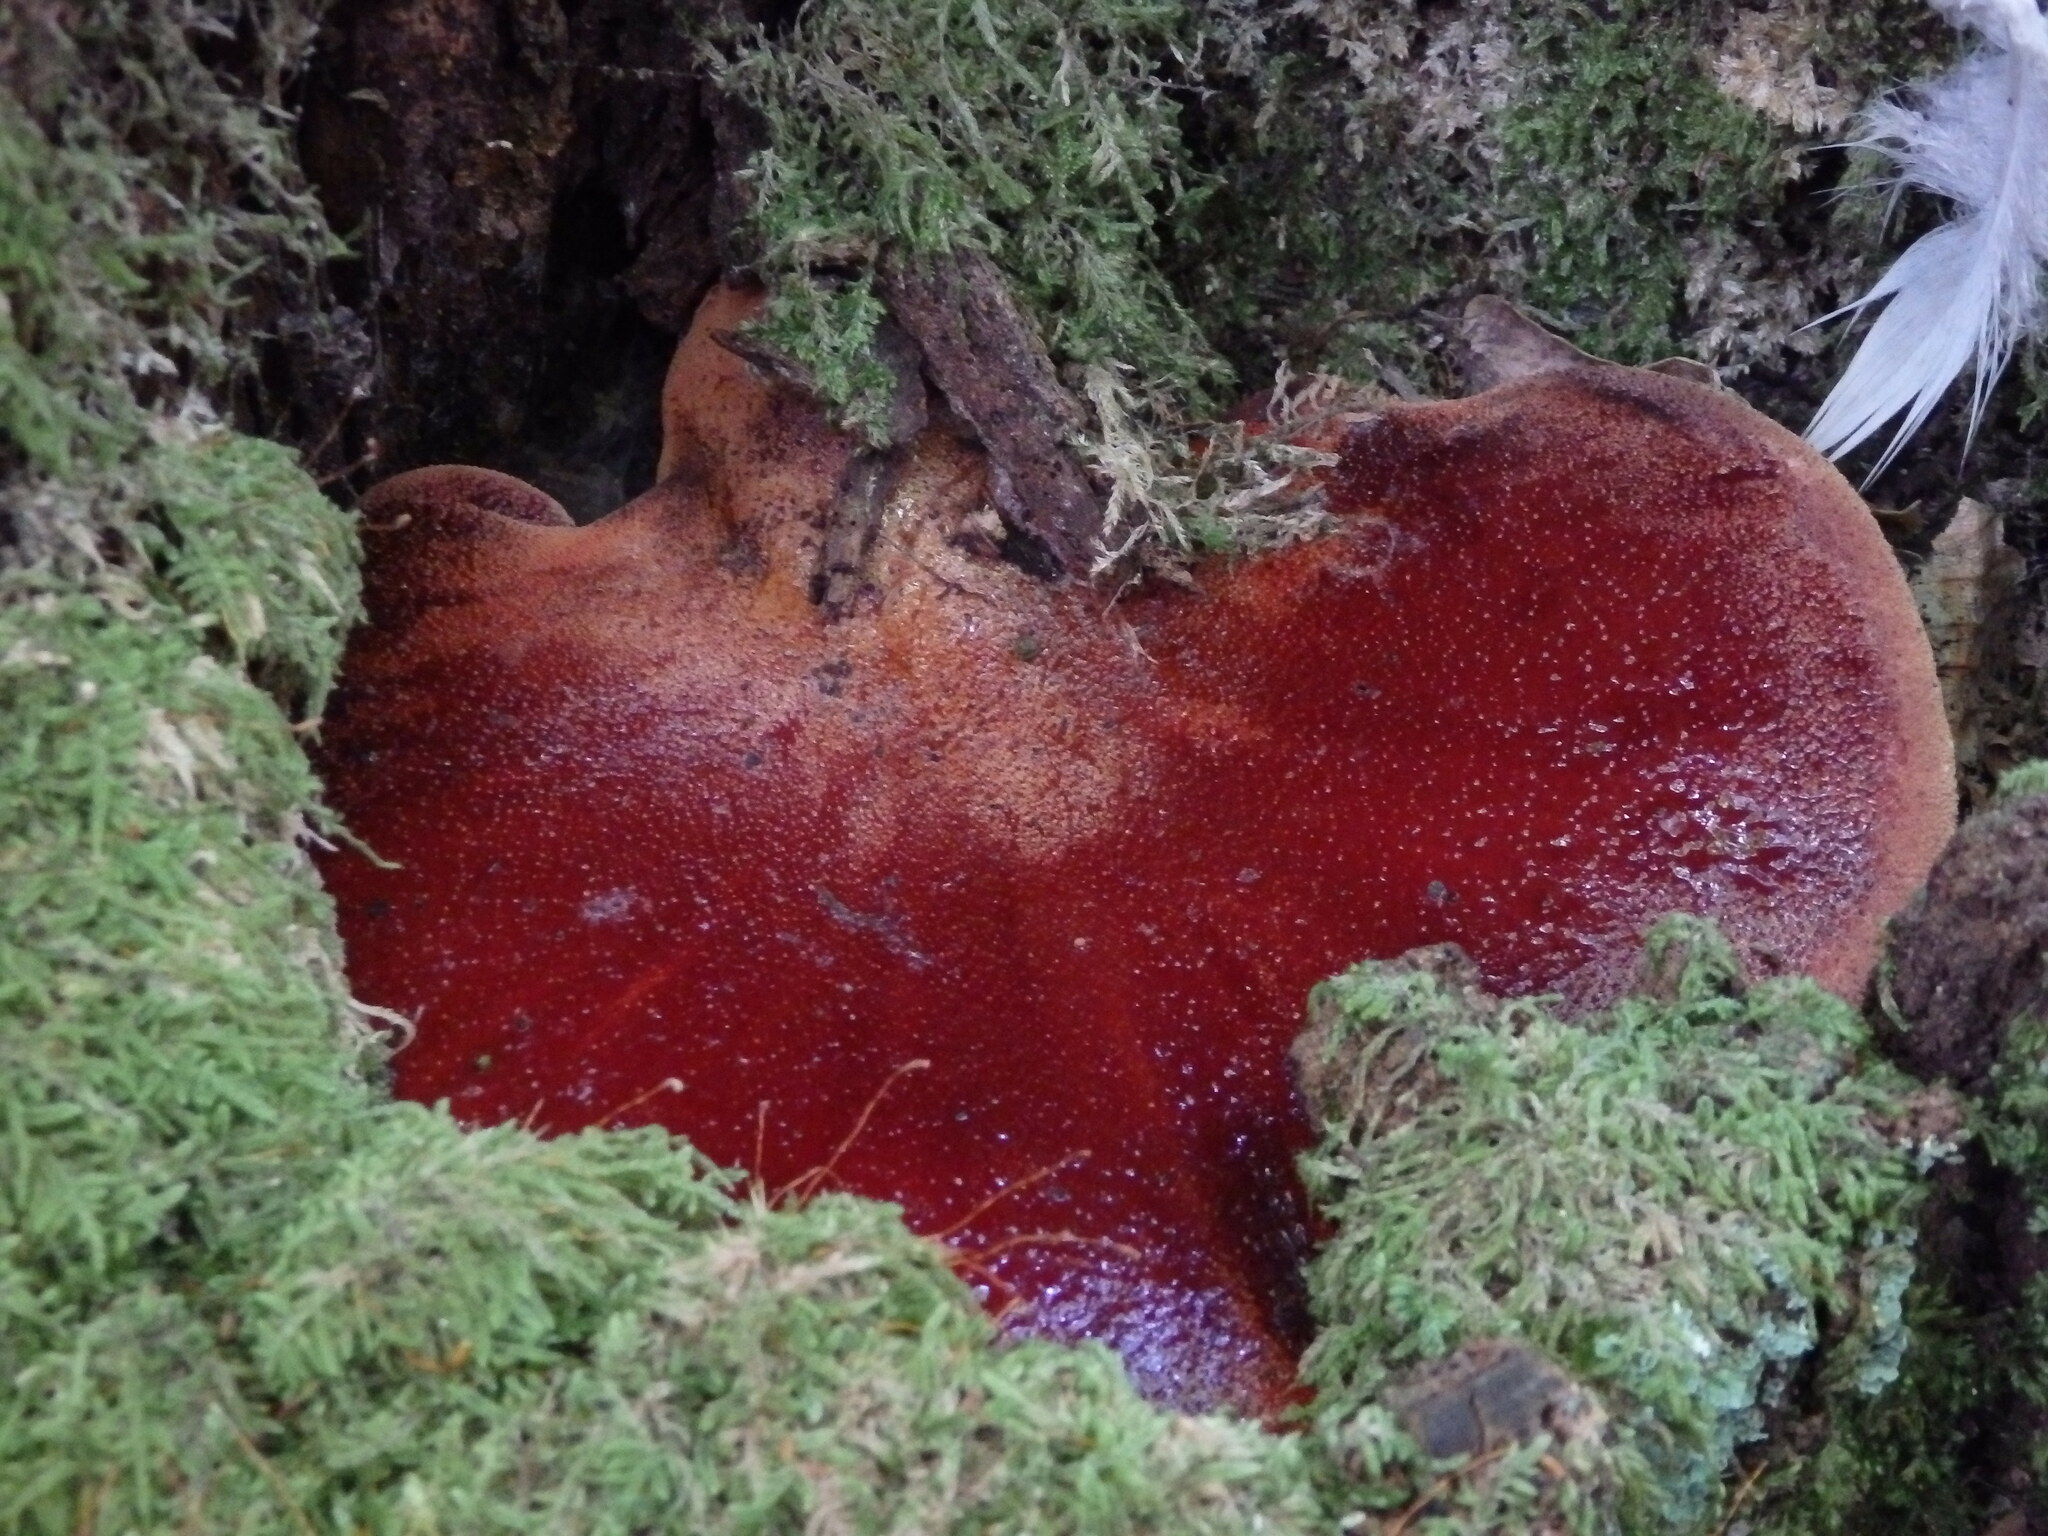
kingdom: Fungi
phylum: Basidiomycota
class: Agaricomycetes
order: Agaricales
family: Fistulinaceae
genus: Fistulina
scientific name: Fistulina hepatica
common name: Beef-steak fungus
